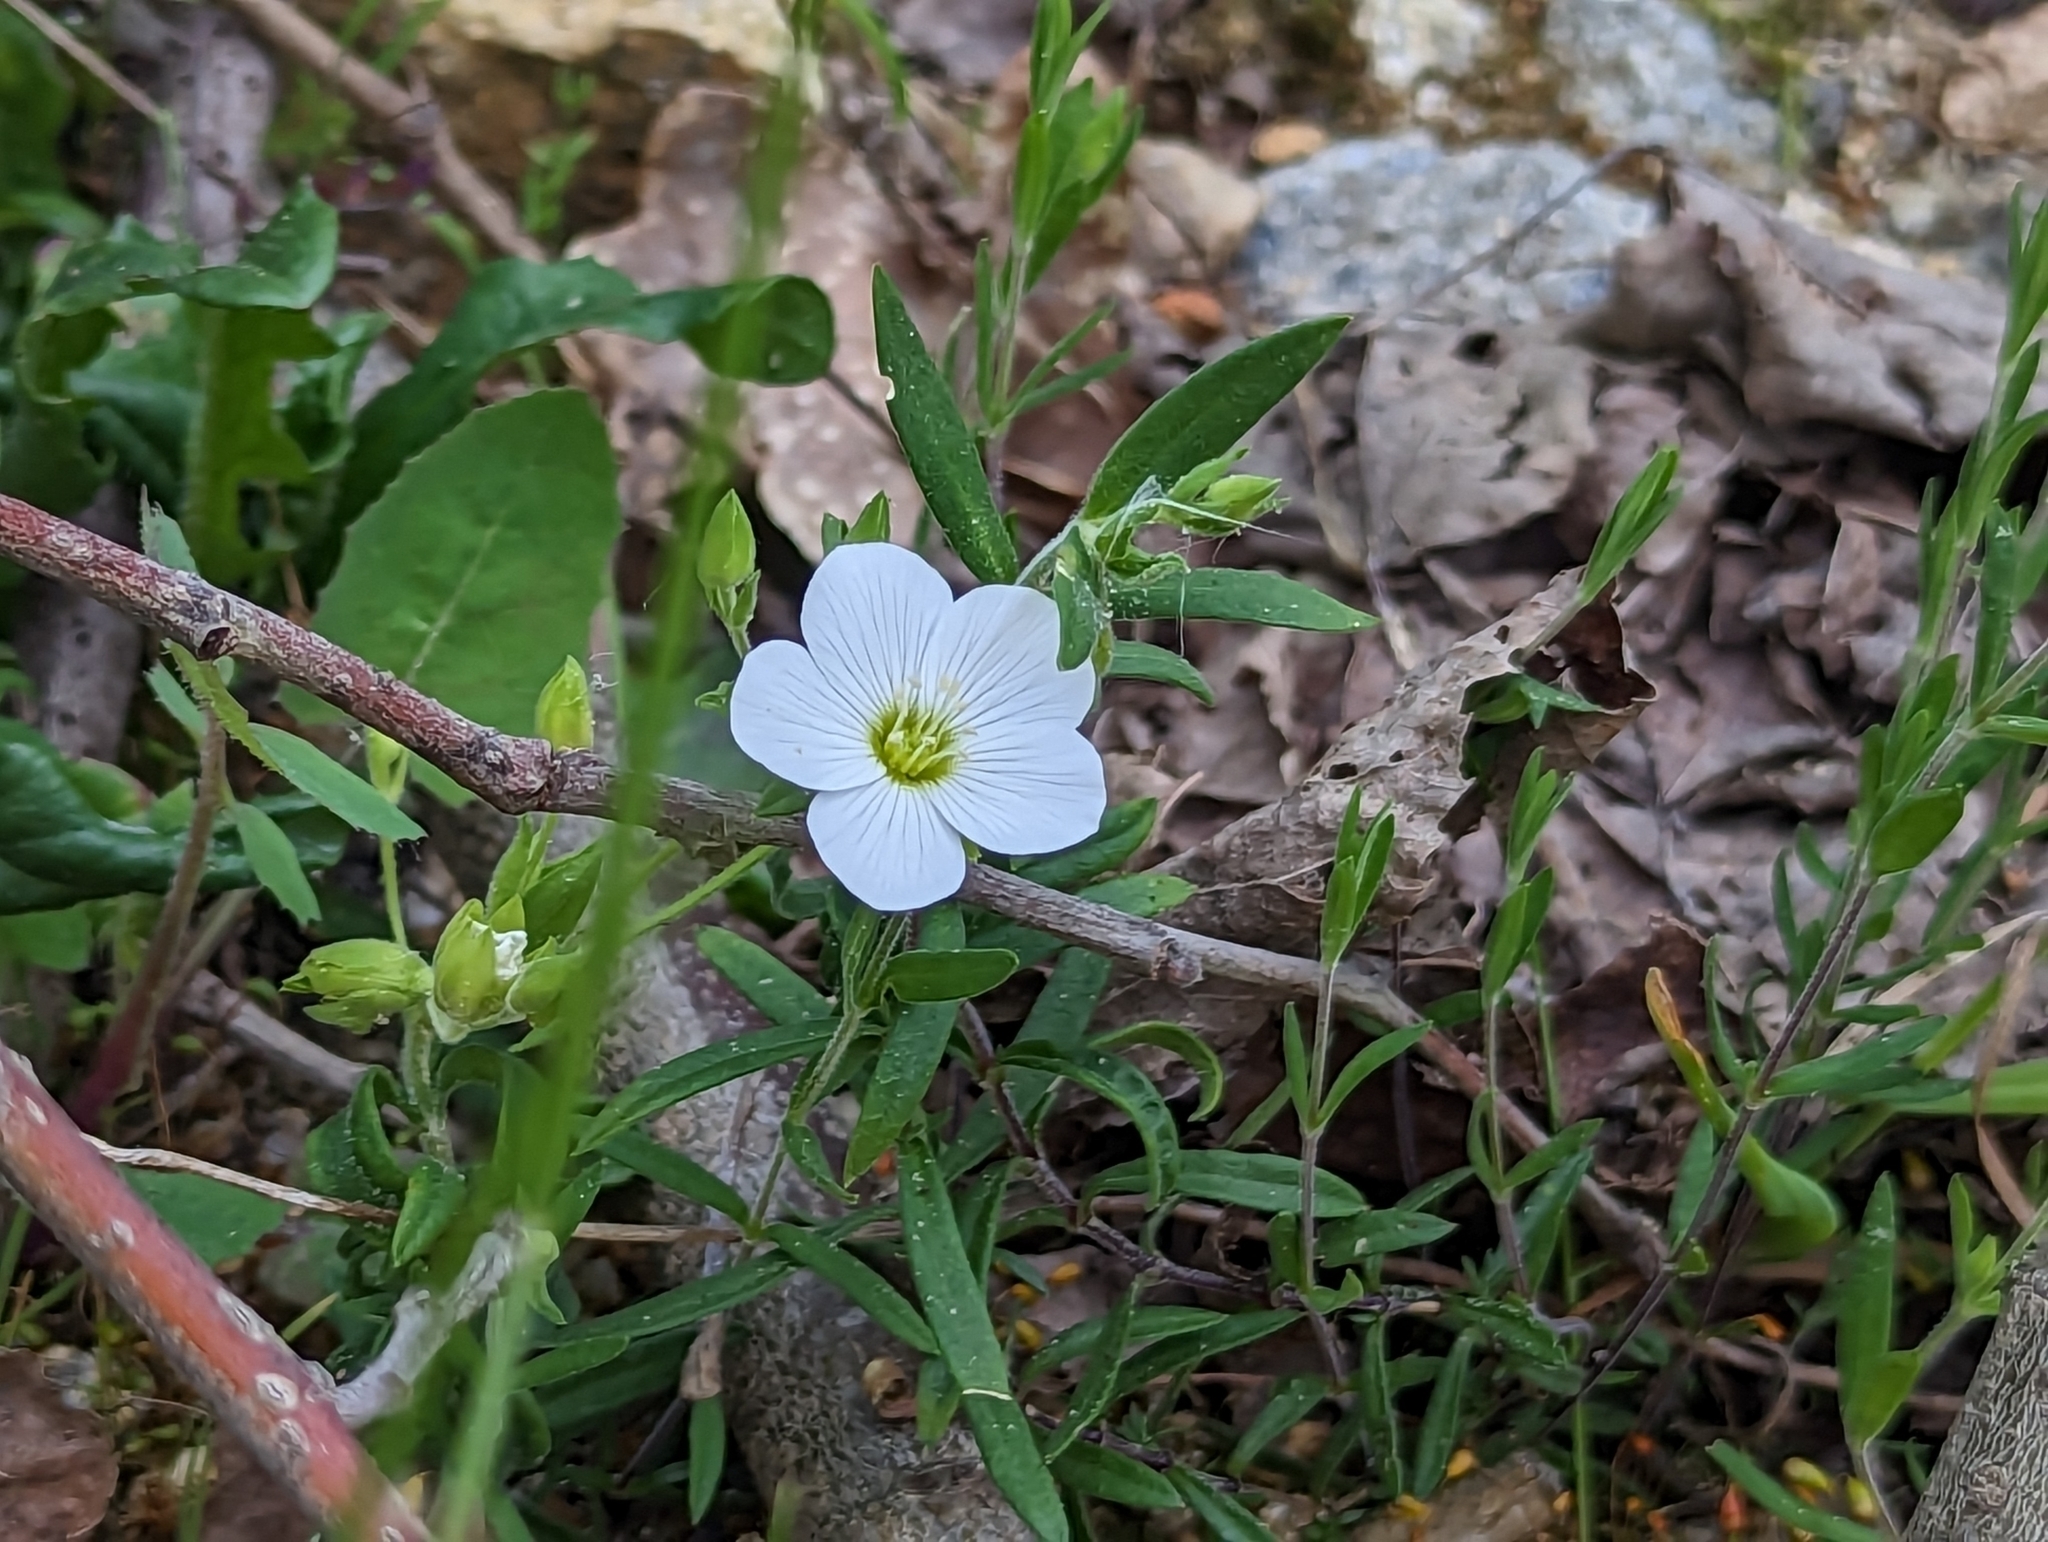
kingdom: Plantae
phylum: Tracheophyta
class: Magnoliopsida
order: Caryophyllales
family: Caryophyllaceae
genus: Arenaria
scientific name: Arenaria montana
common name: Mountain sandwort
